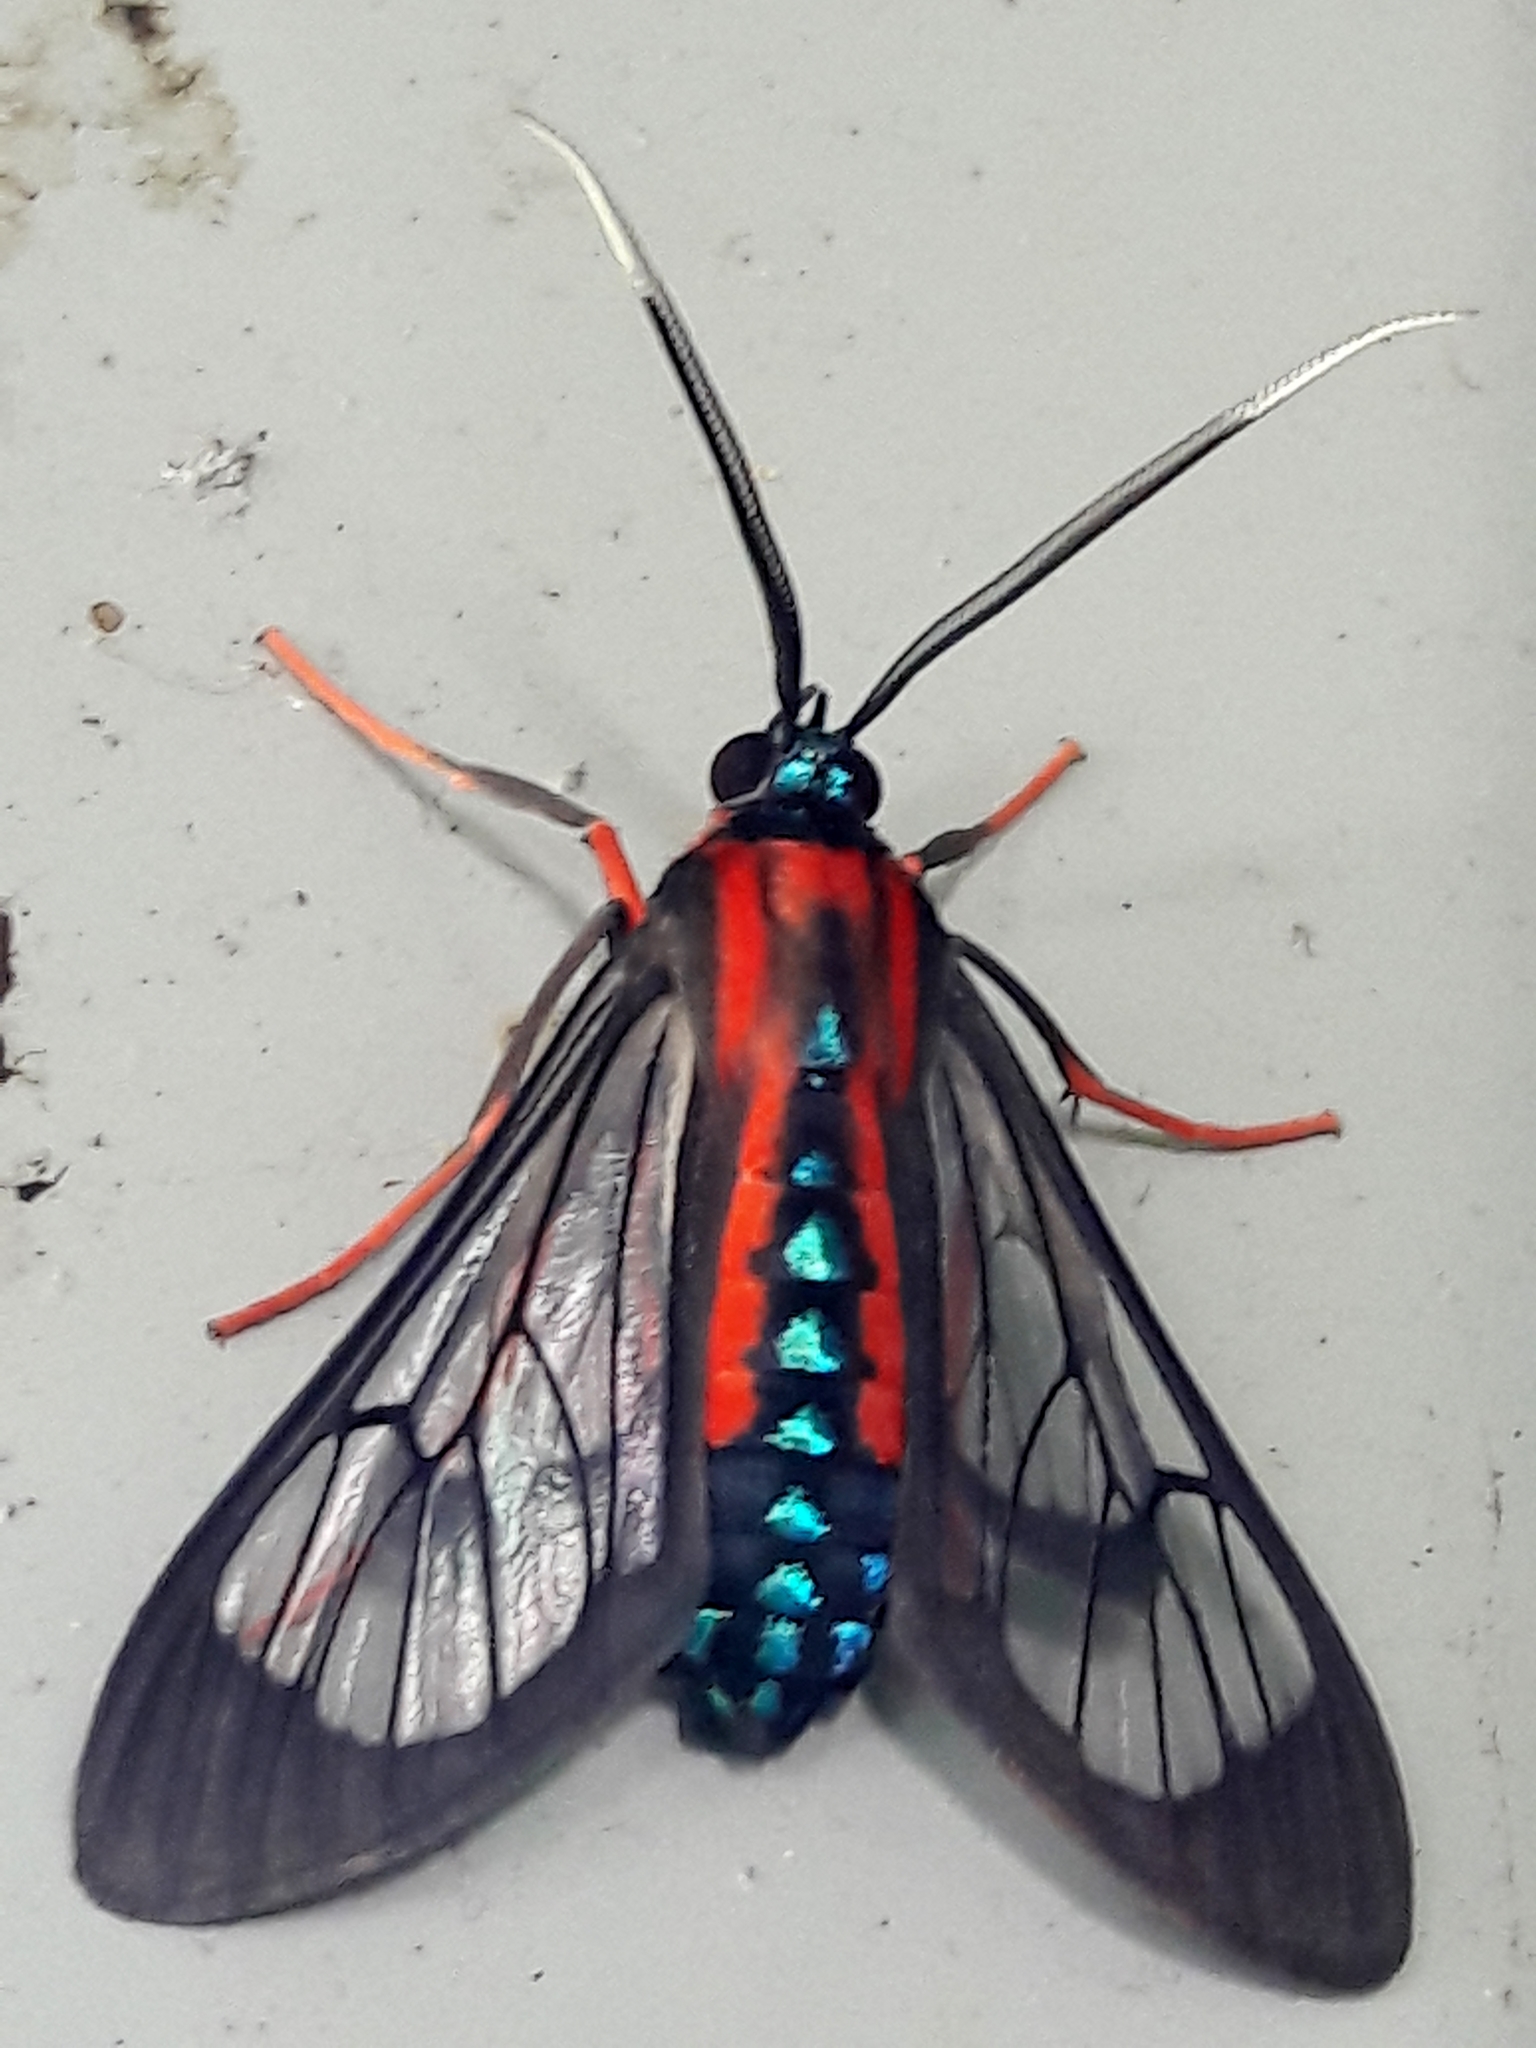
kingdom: Animalia
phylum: Arthropoda
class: Insecta
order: Lepidoptera
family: Erebidae
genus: Cosmosoma
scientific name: Cosmosoma auge
